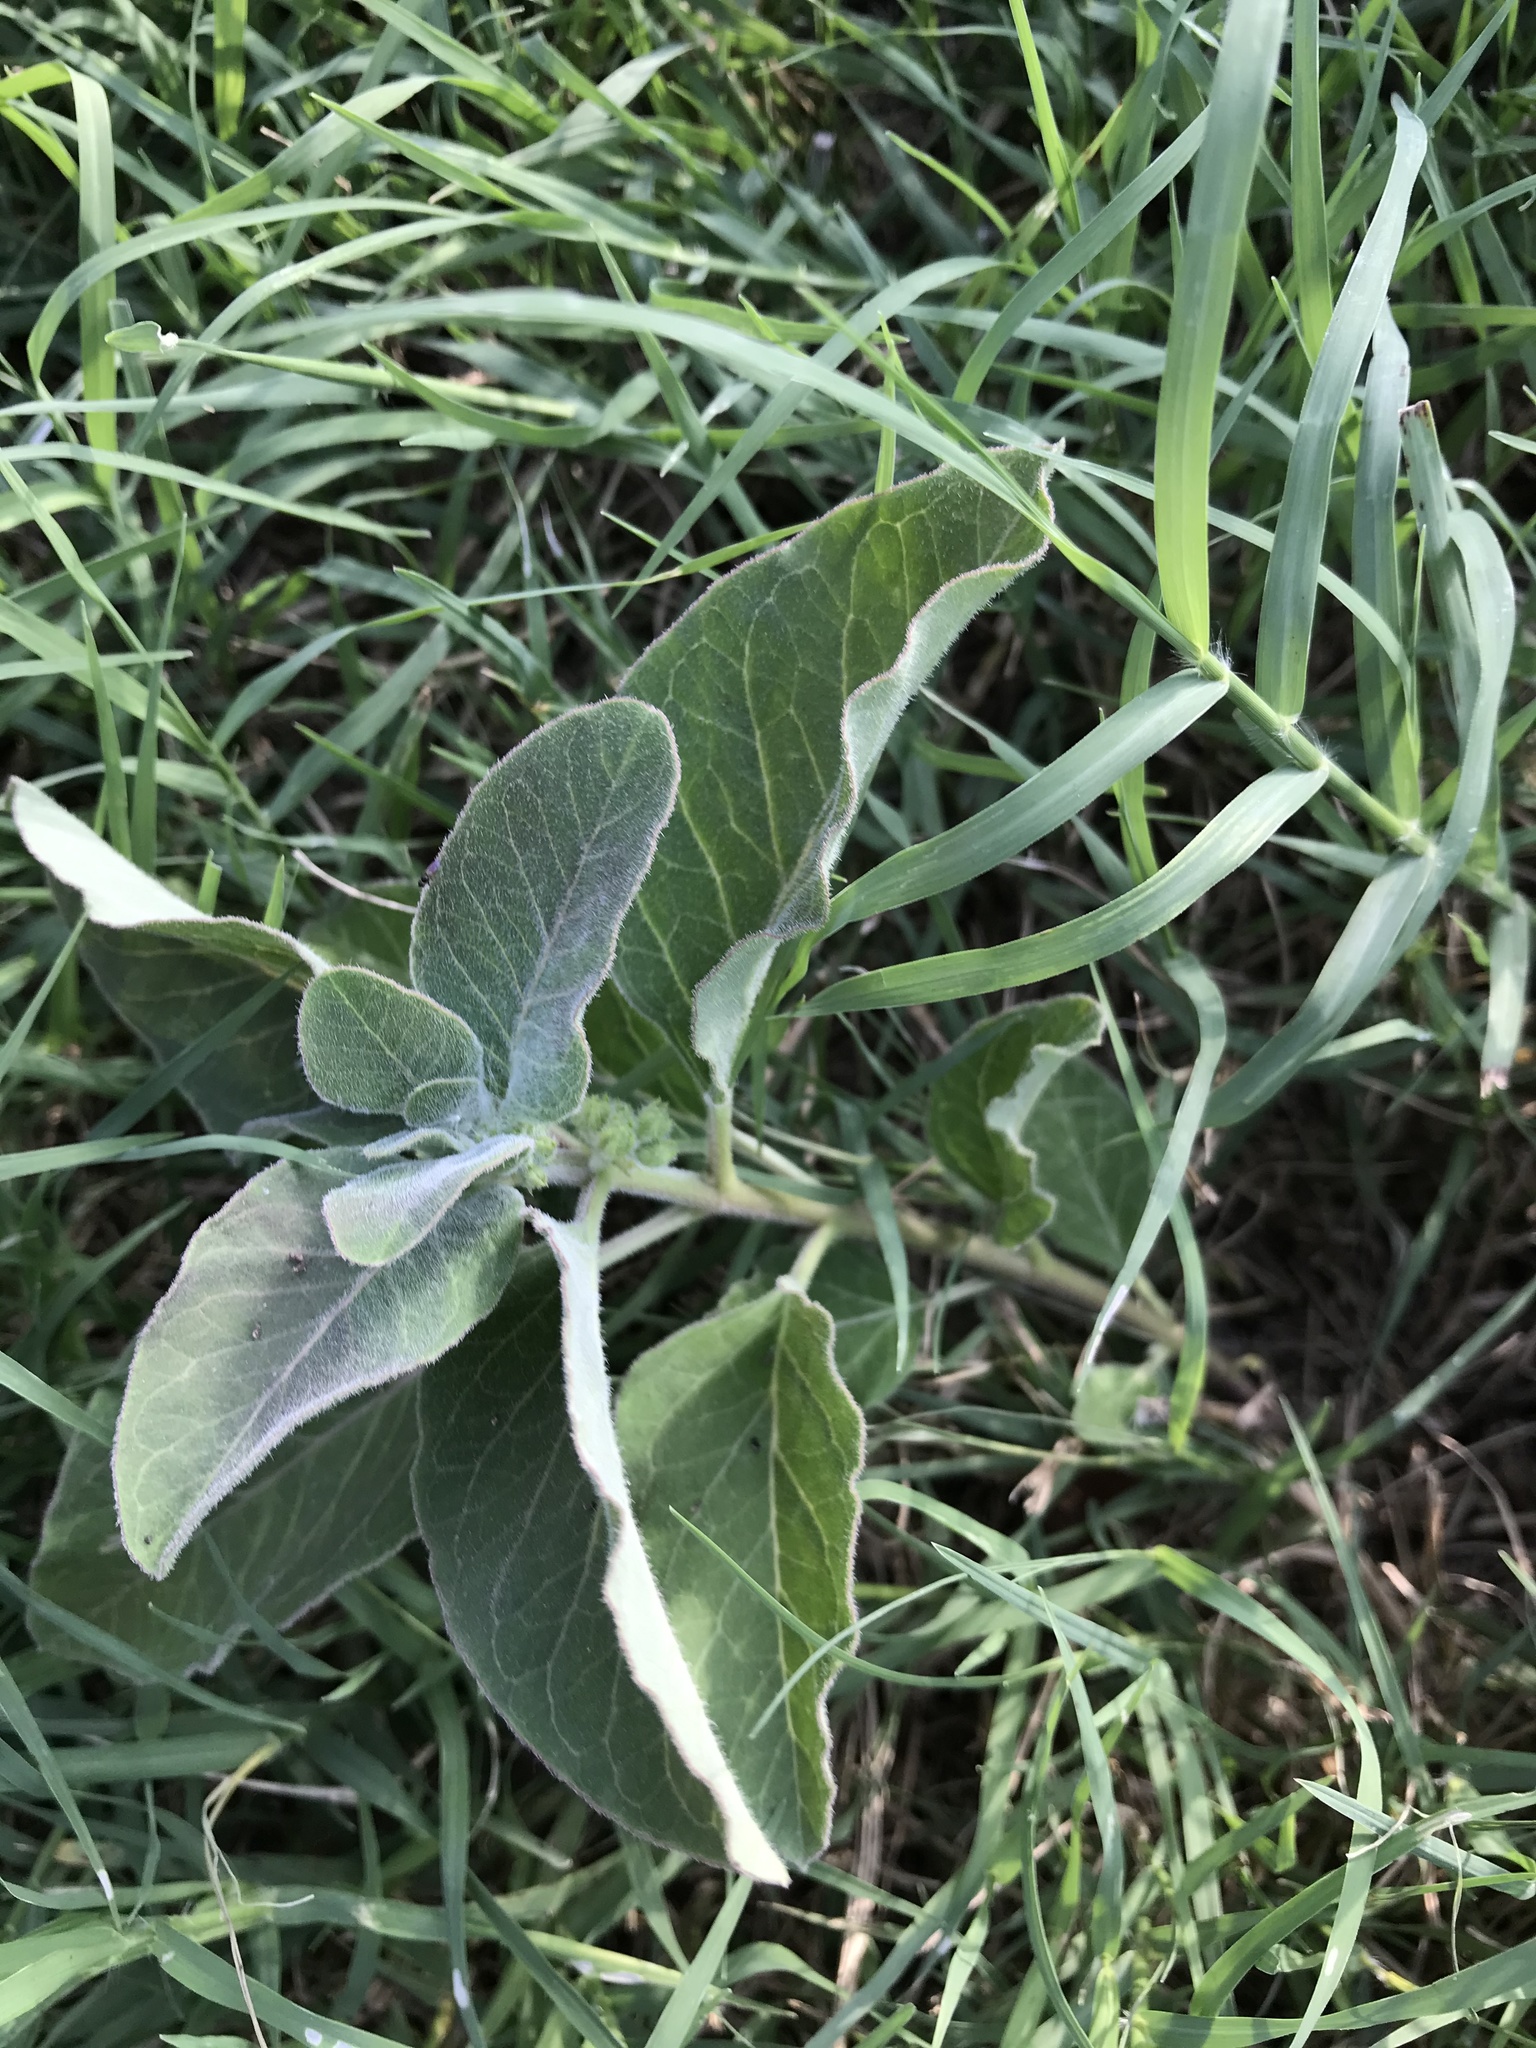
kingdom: Plantae
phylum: Tracheophyta
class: Magnoliopsida
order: Gentianales
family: Apocynaceae
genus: Asclepias
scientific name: Asclepias oenotheroides
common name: Zizotes milkweed
